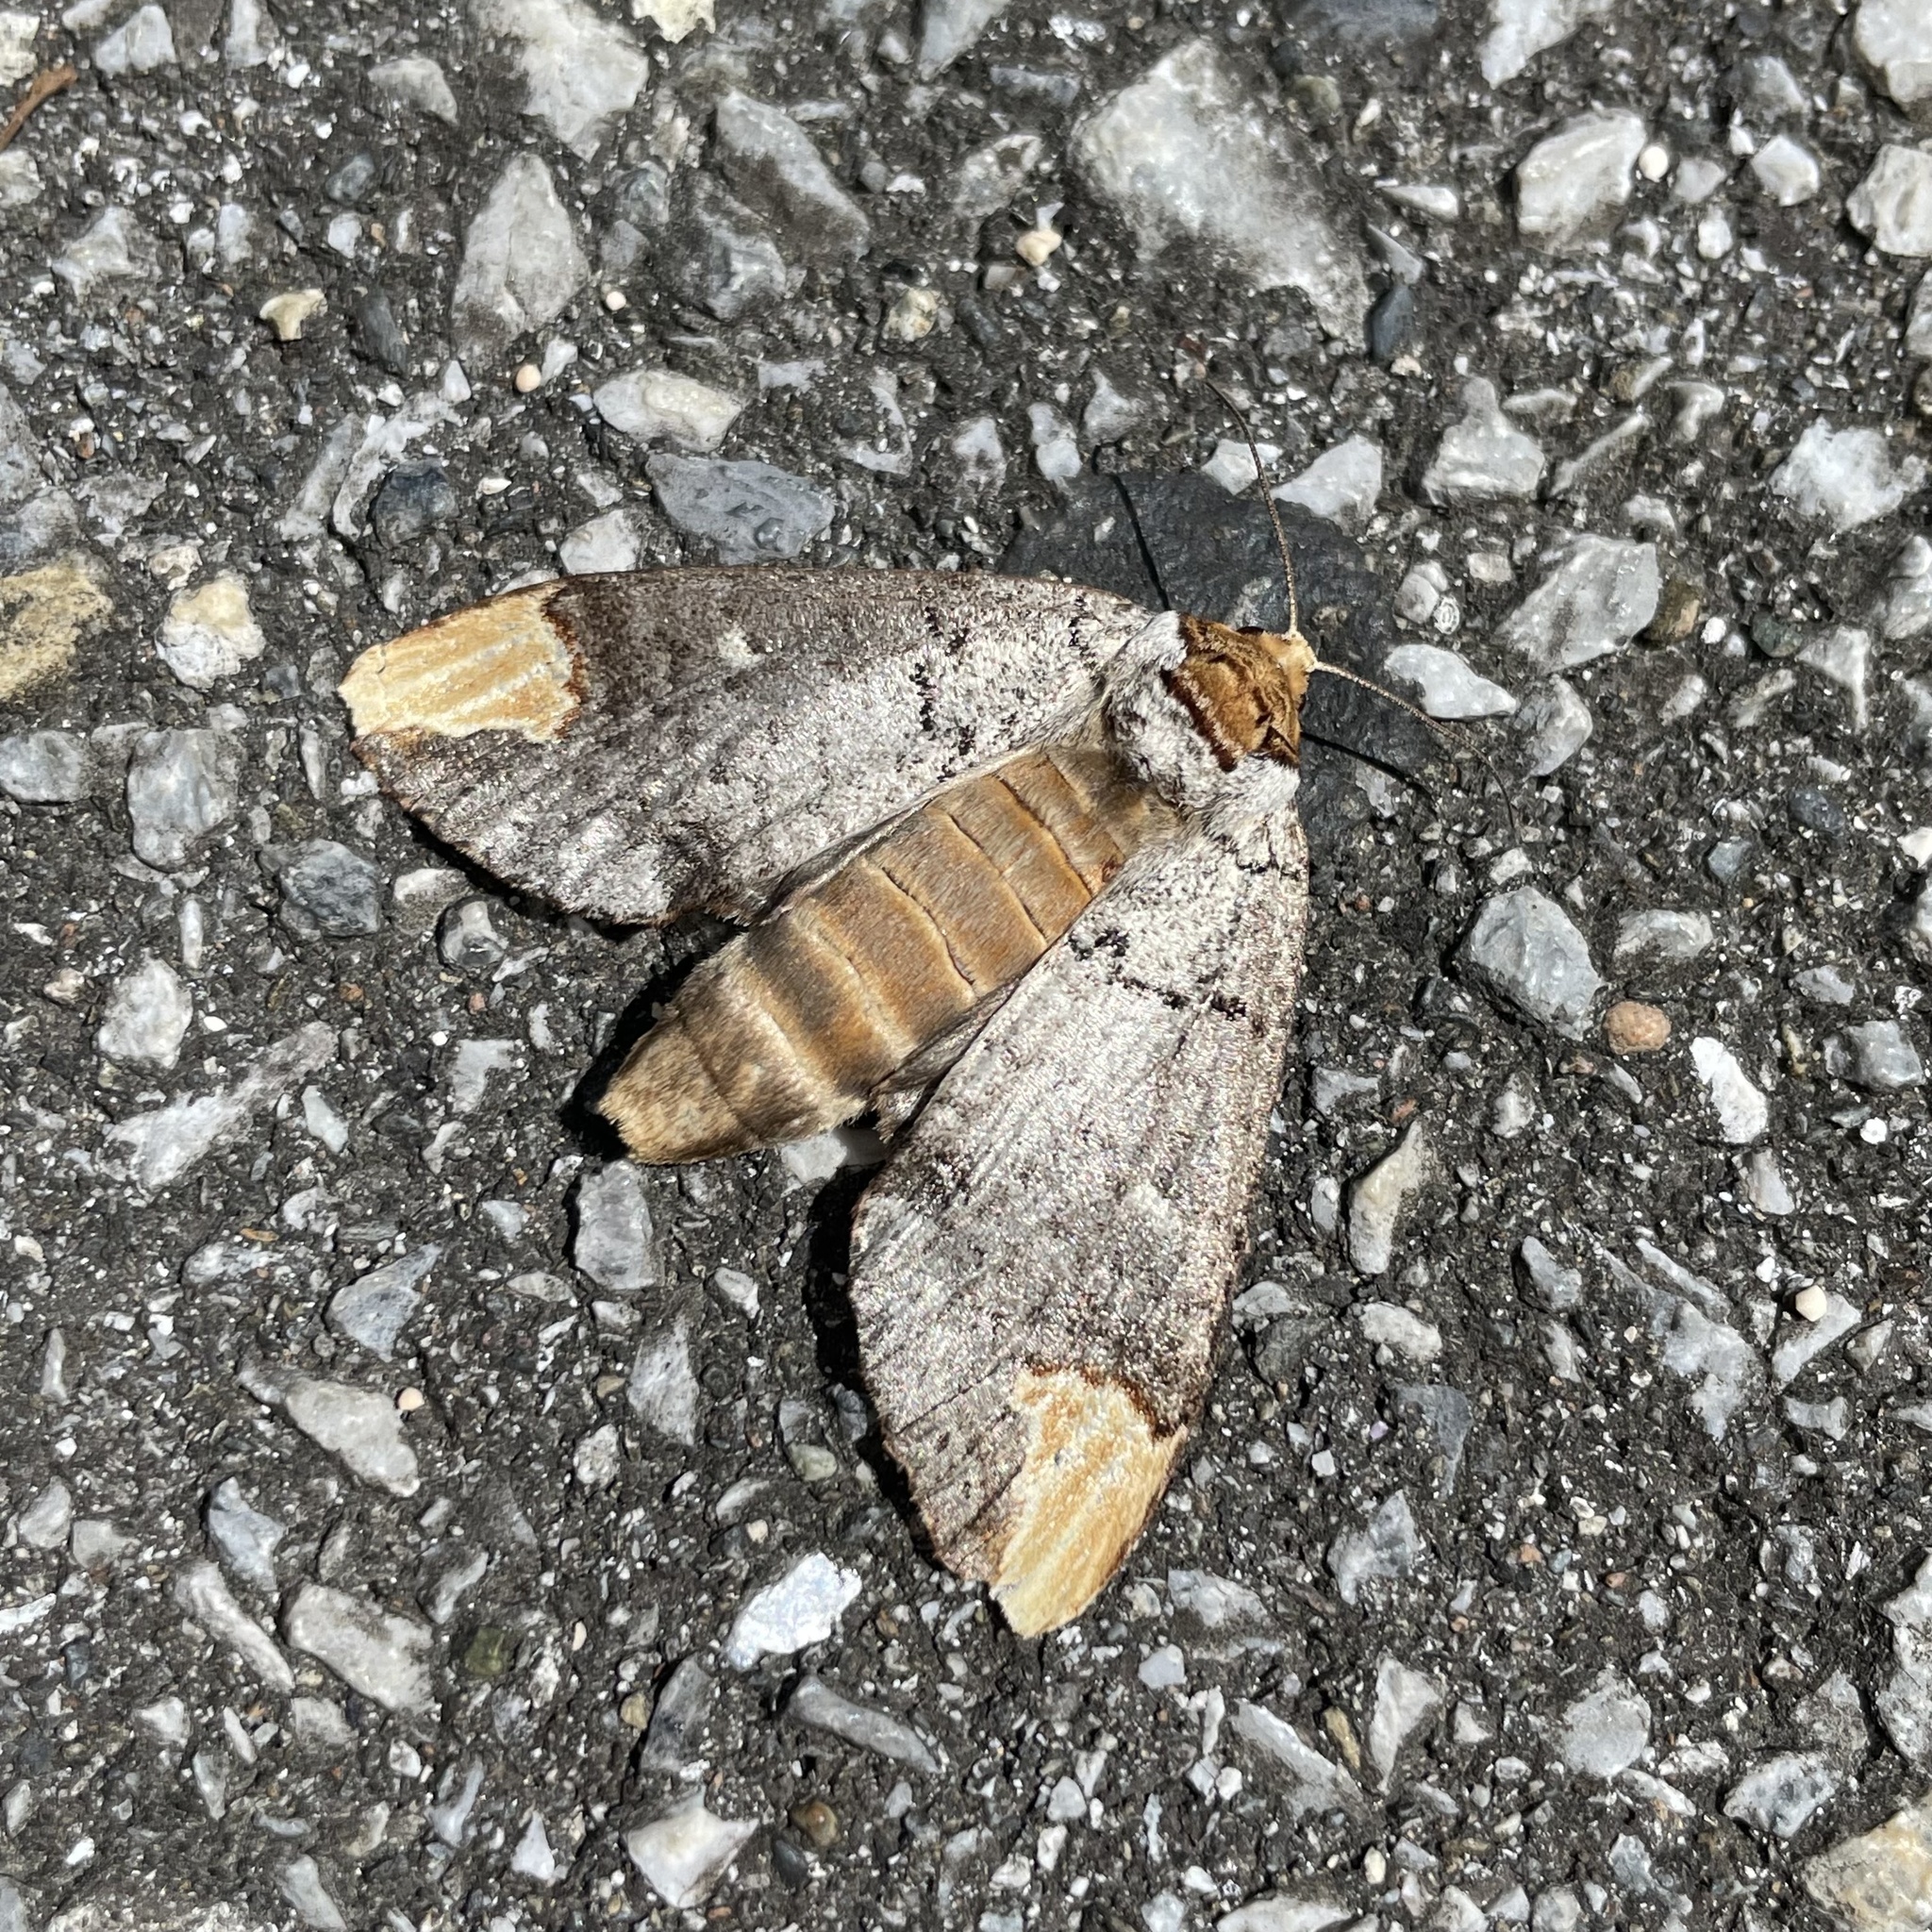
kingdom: Animalia
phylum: Arthropoda
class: Insecta
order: Lepidoptera
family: Notodontidae
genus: Phalera
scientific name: Phalera minor
